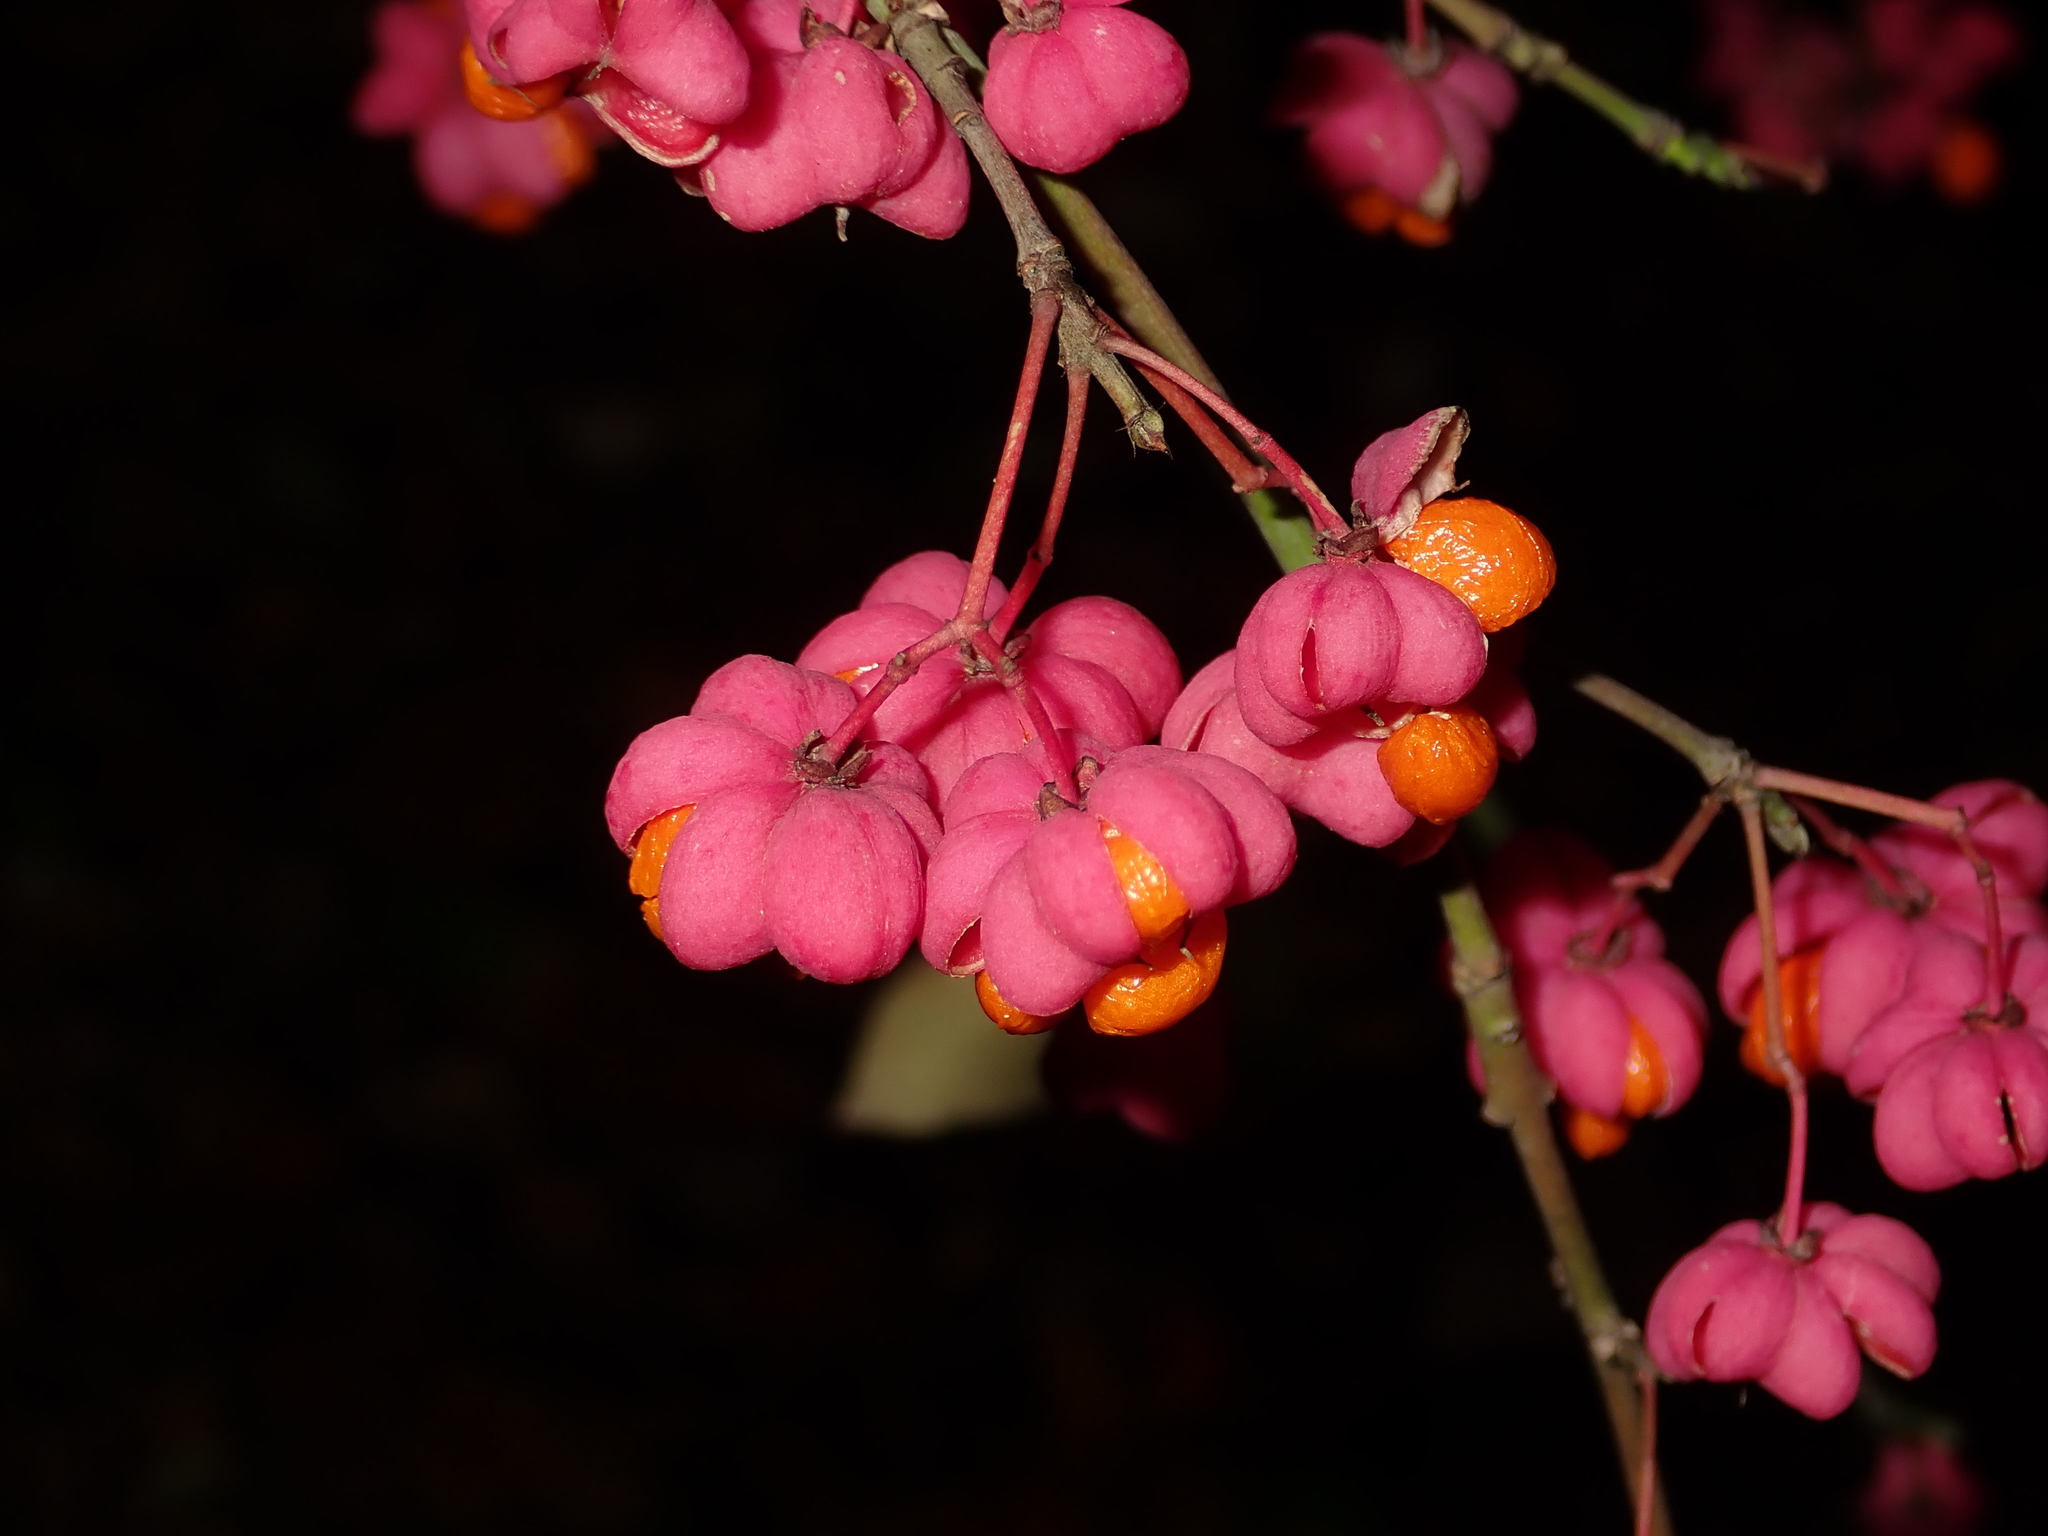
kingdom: Plantae
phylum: Tracheophyta
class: Magnoliopsida
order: Celastrales
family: Celastraceae
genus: Euonymus
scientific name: Euonymus europaeus
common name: Spindle
